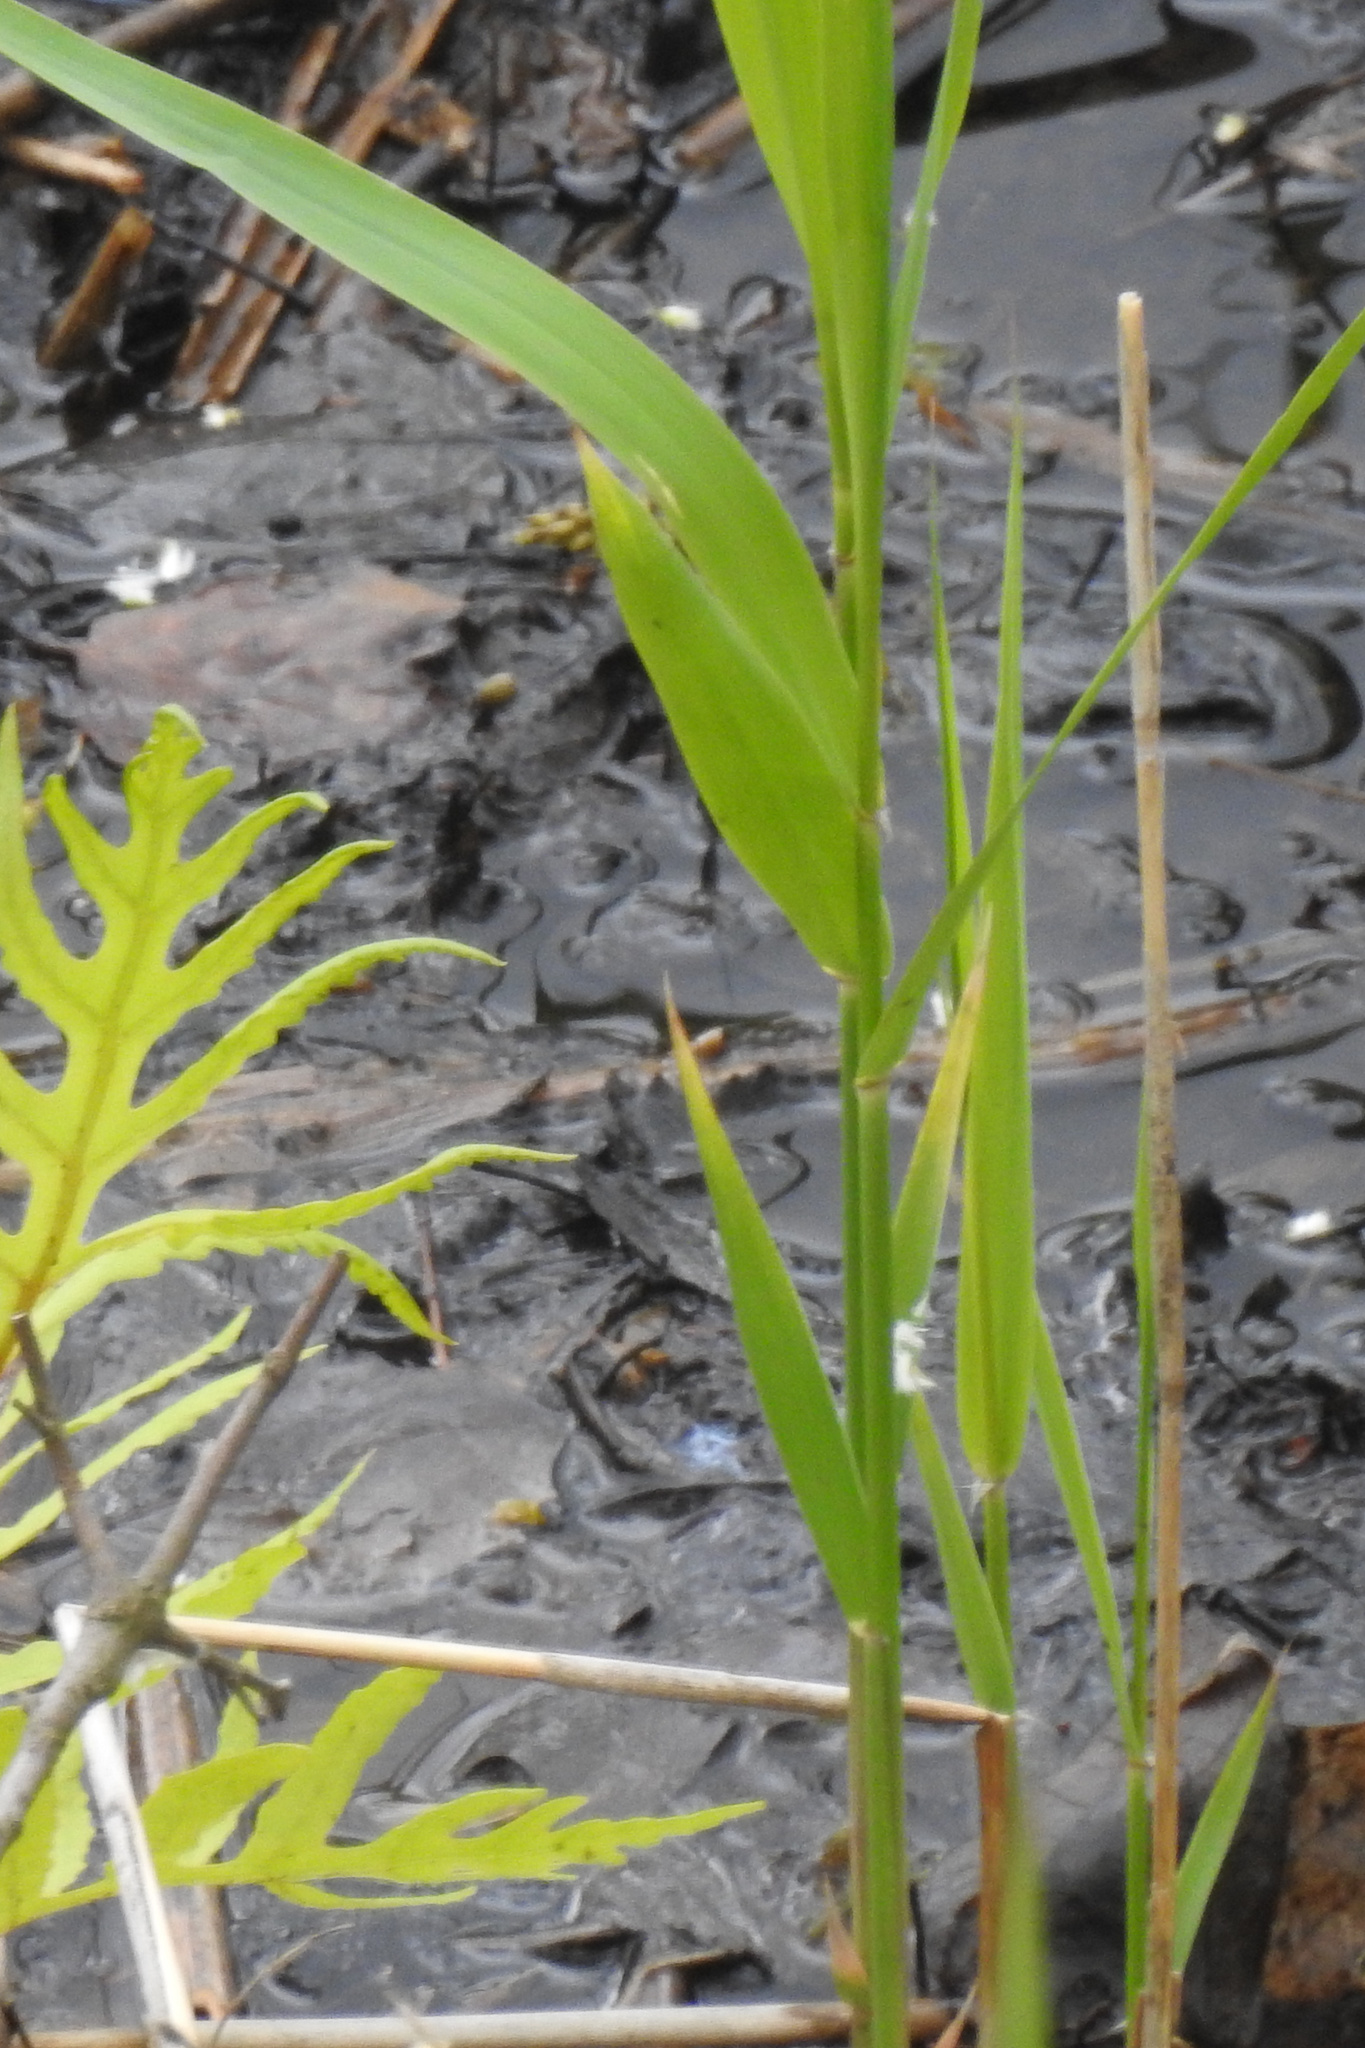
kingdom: Plantae
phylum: Tracheophyta
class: Liliopsida
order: Poales
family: Poaceae
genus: Phragmites
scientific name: Phragmites australis
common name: Common reed
